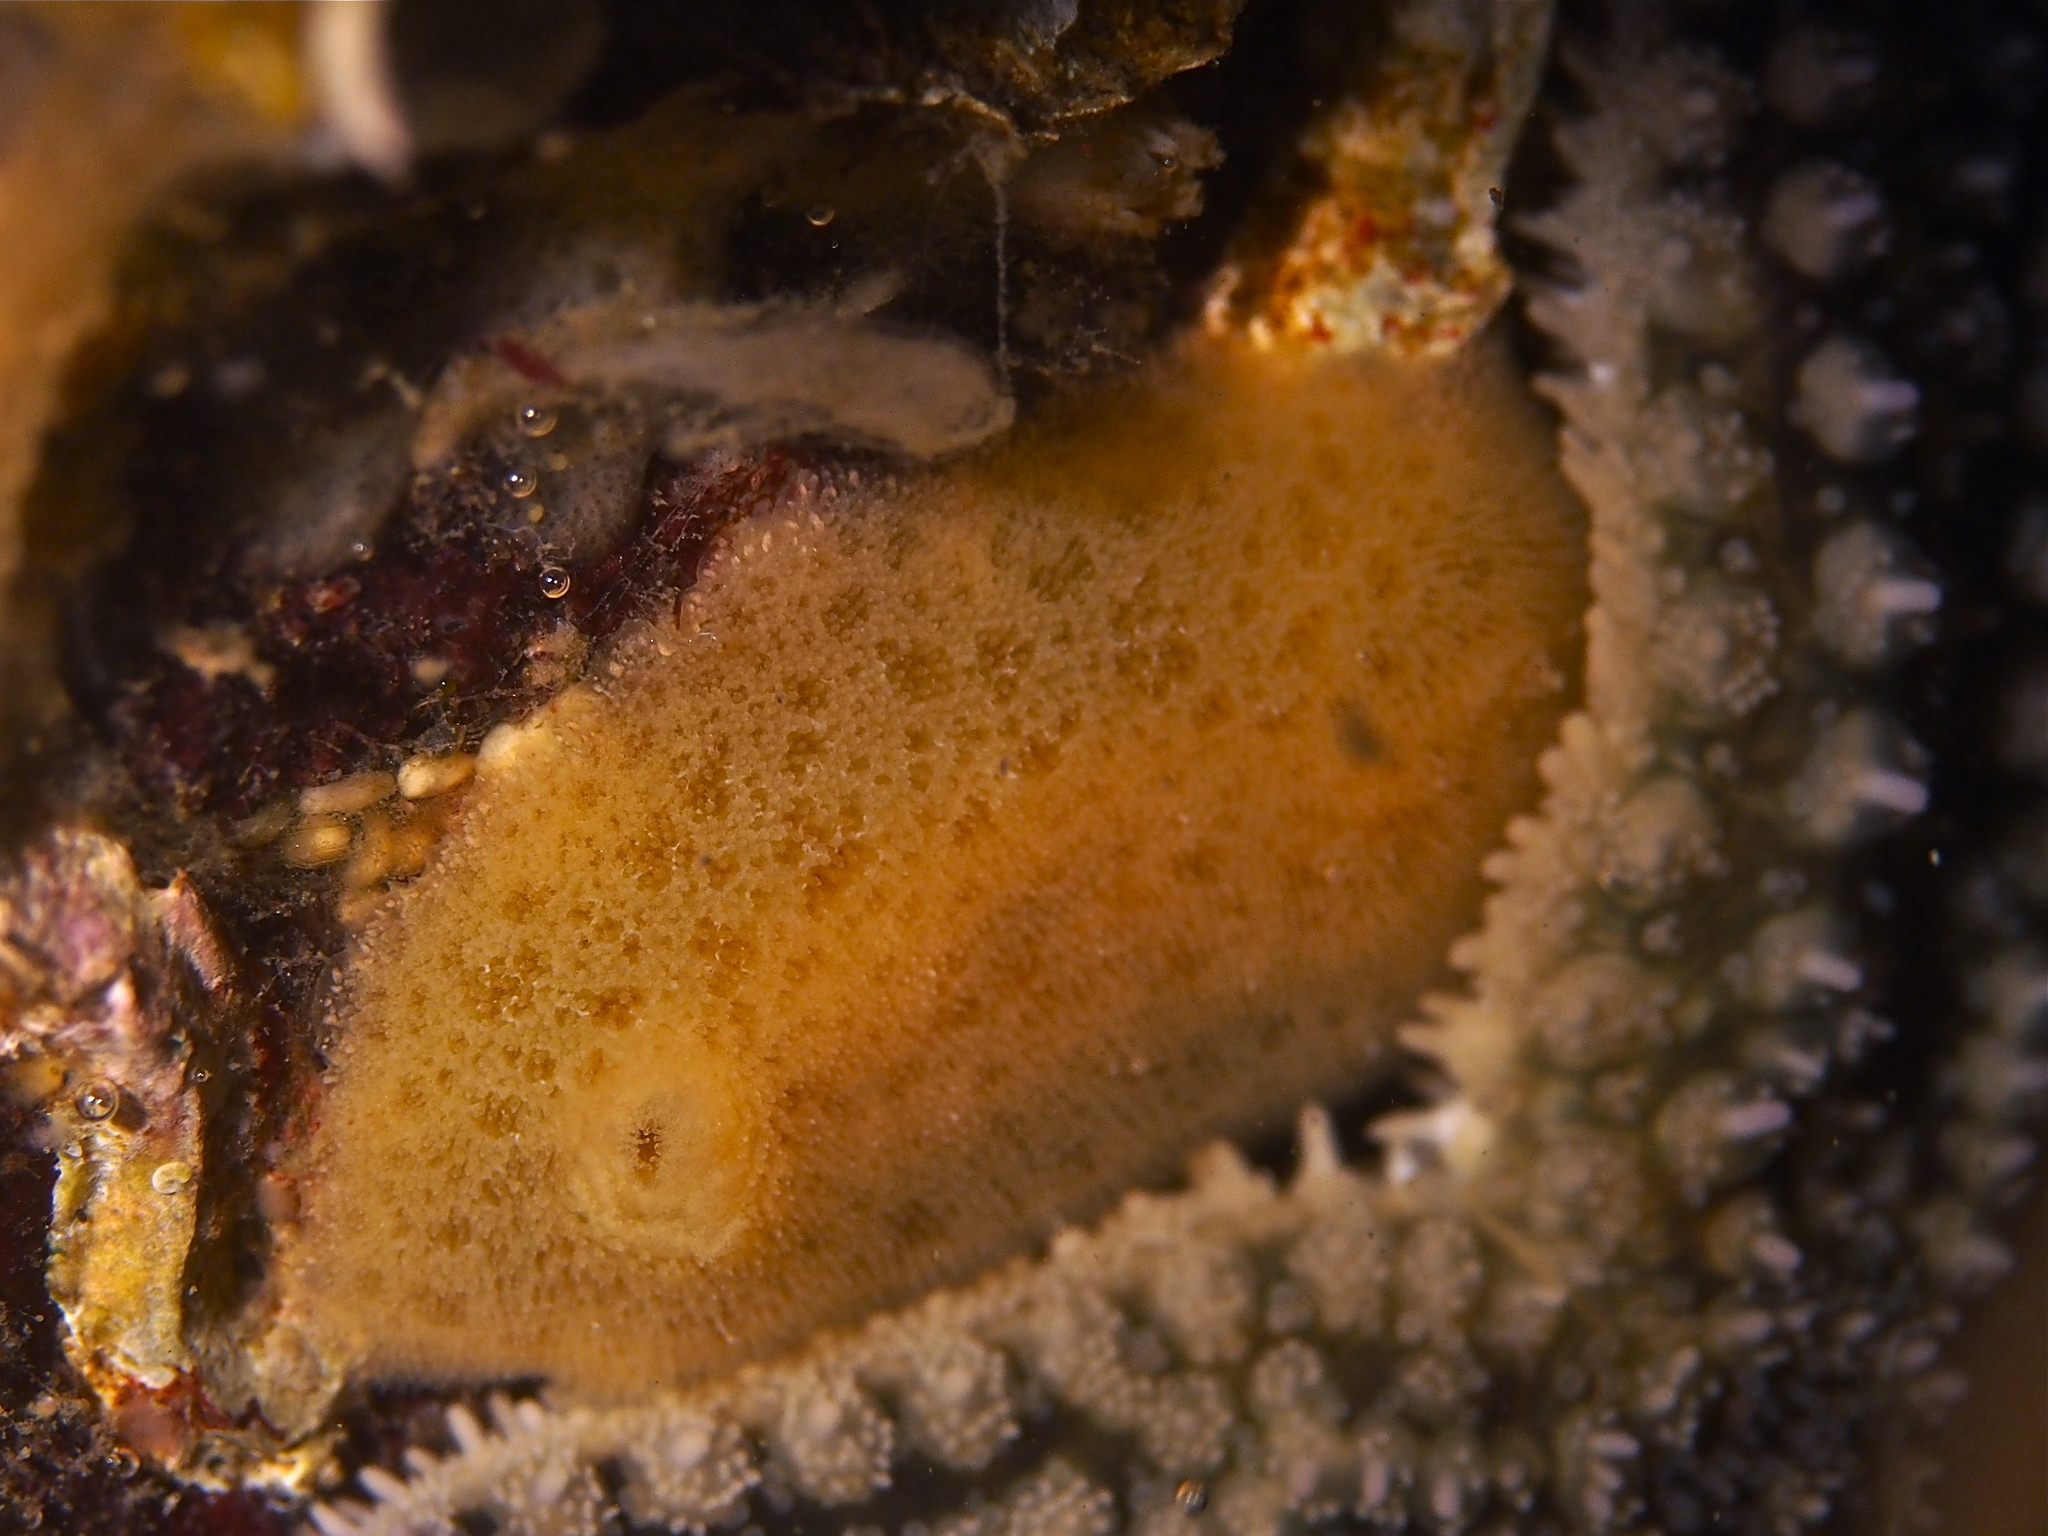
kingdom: Animalia
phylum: Mollusca
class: Gastropoda
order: Nudibranchia
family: Discodorididae
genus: Jorunna
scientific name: Jorunna tomentosa
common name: Grey sea slug
